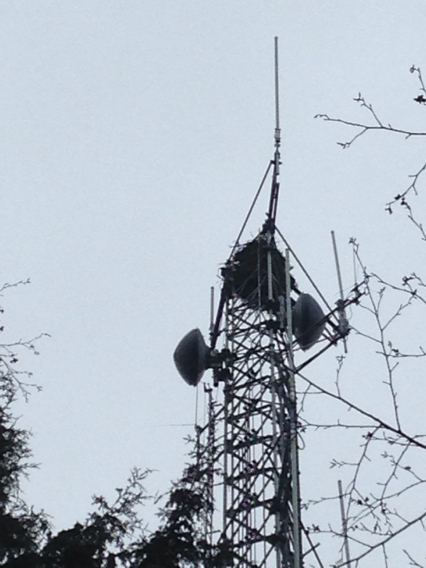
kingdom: Animalia
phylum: Chordata
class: Aves
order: Accipitriformes
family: Pandionidae
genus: Pandion
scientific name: Pandion haliaetus
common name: Osprey
